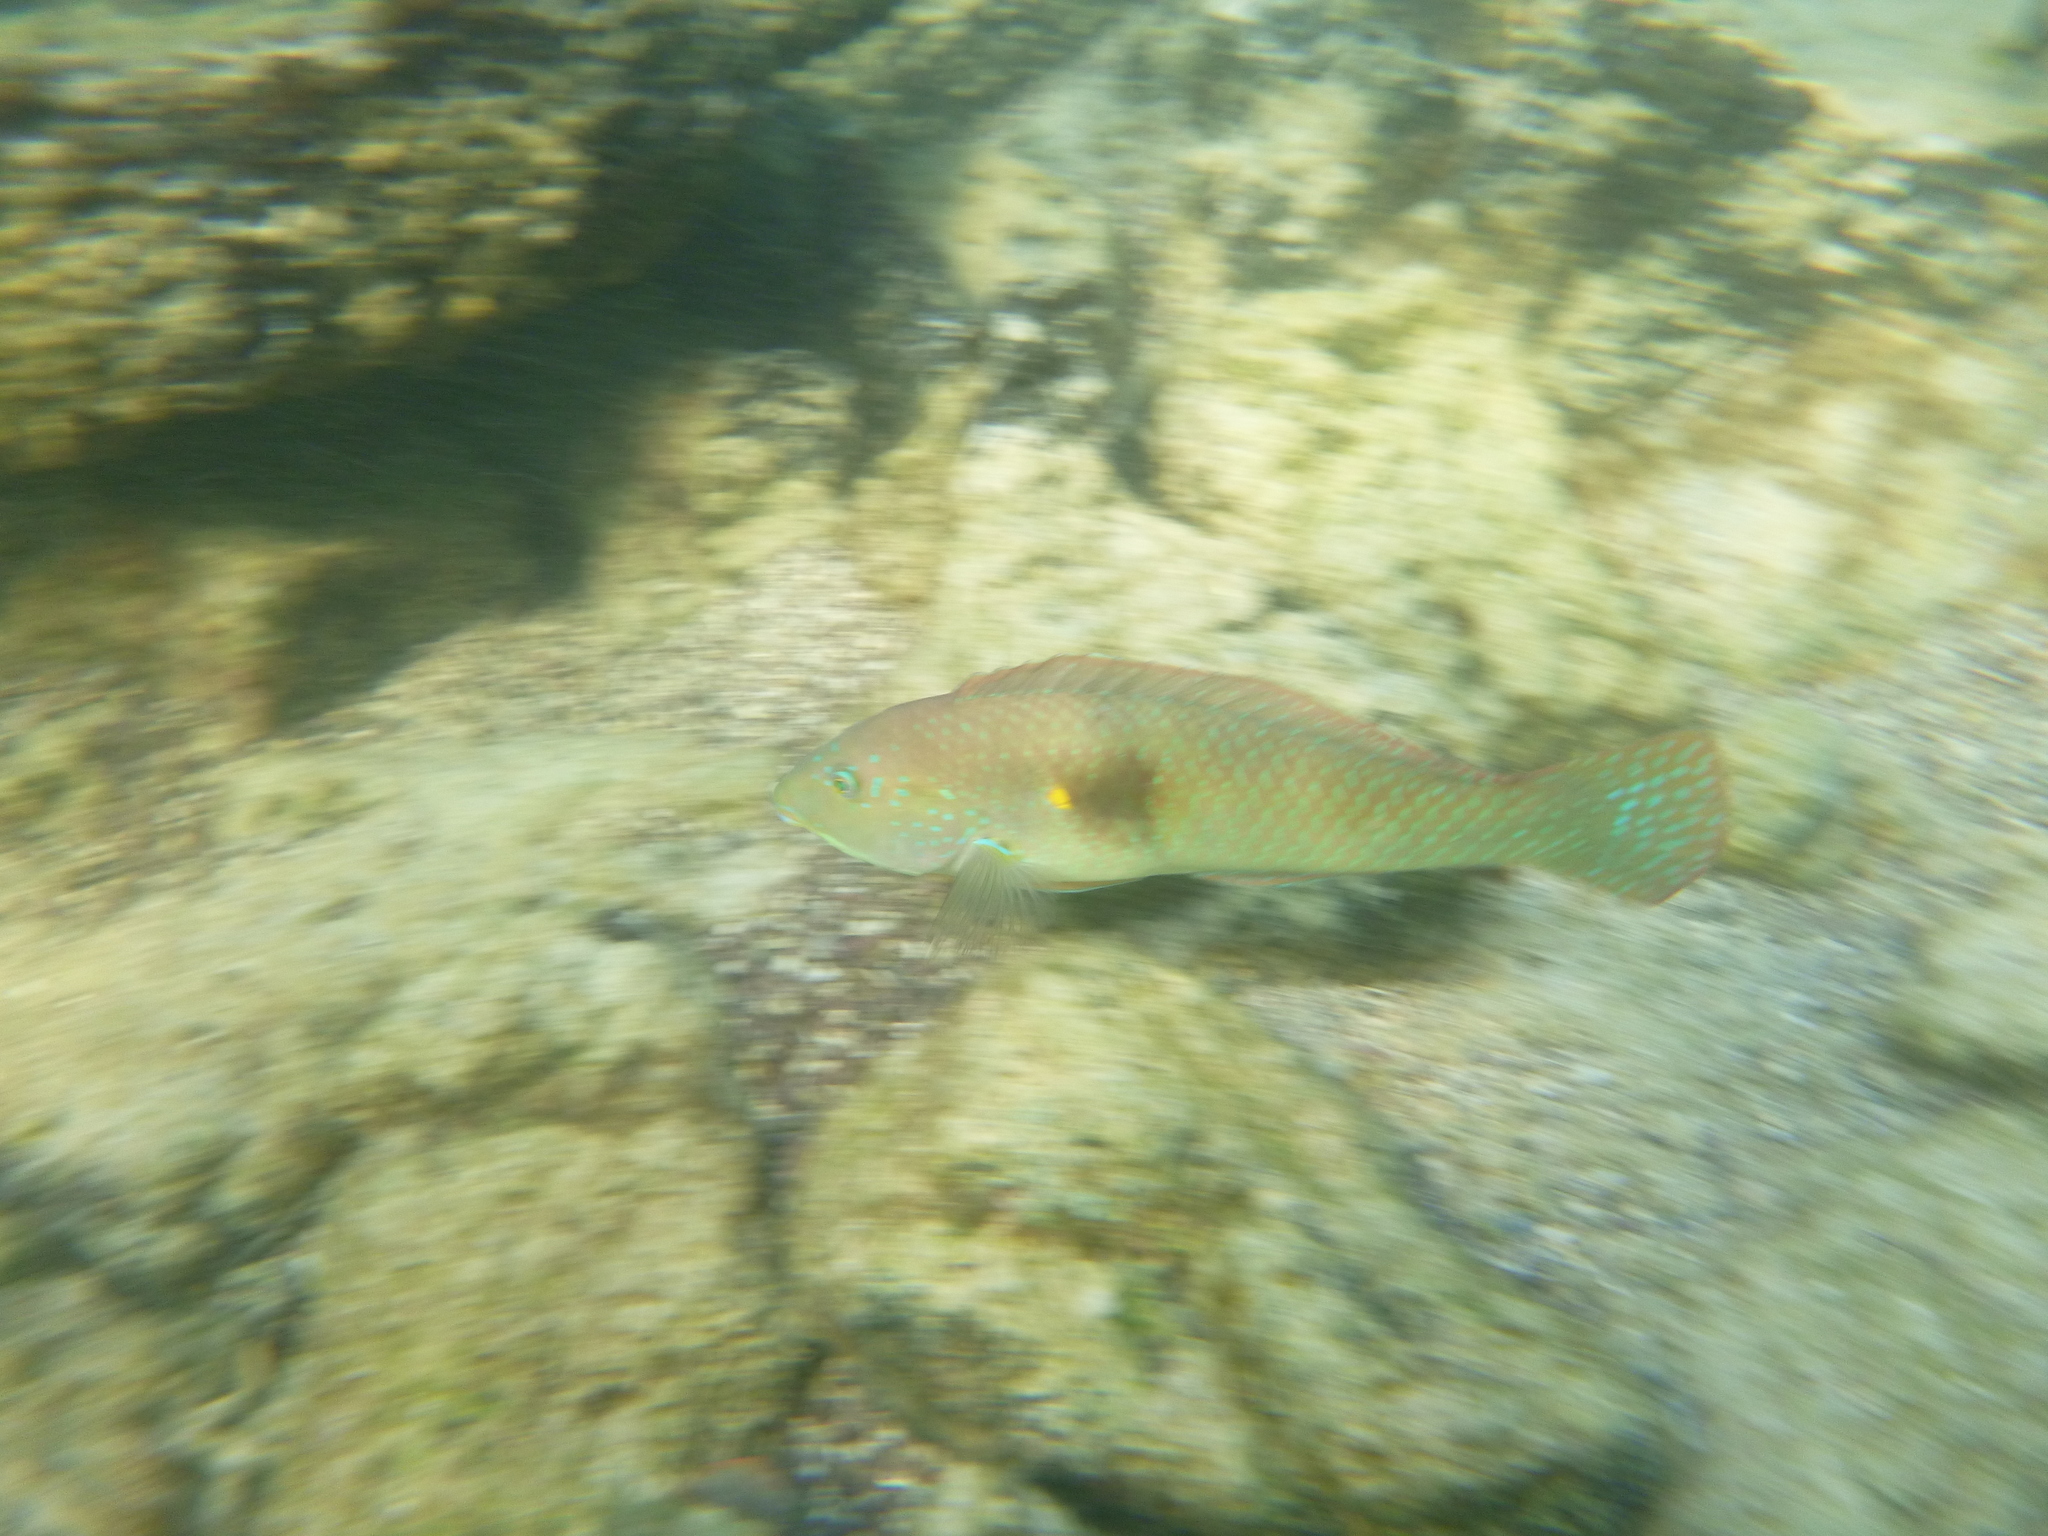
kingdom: Animalia
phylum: Chordata
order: Perciformes
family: Labridae
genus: Halichoeres
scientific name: Halichoeres nicholsi
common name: Spinster wrasse
